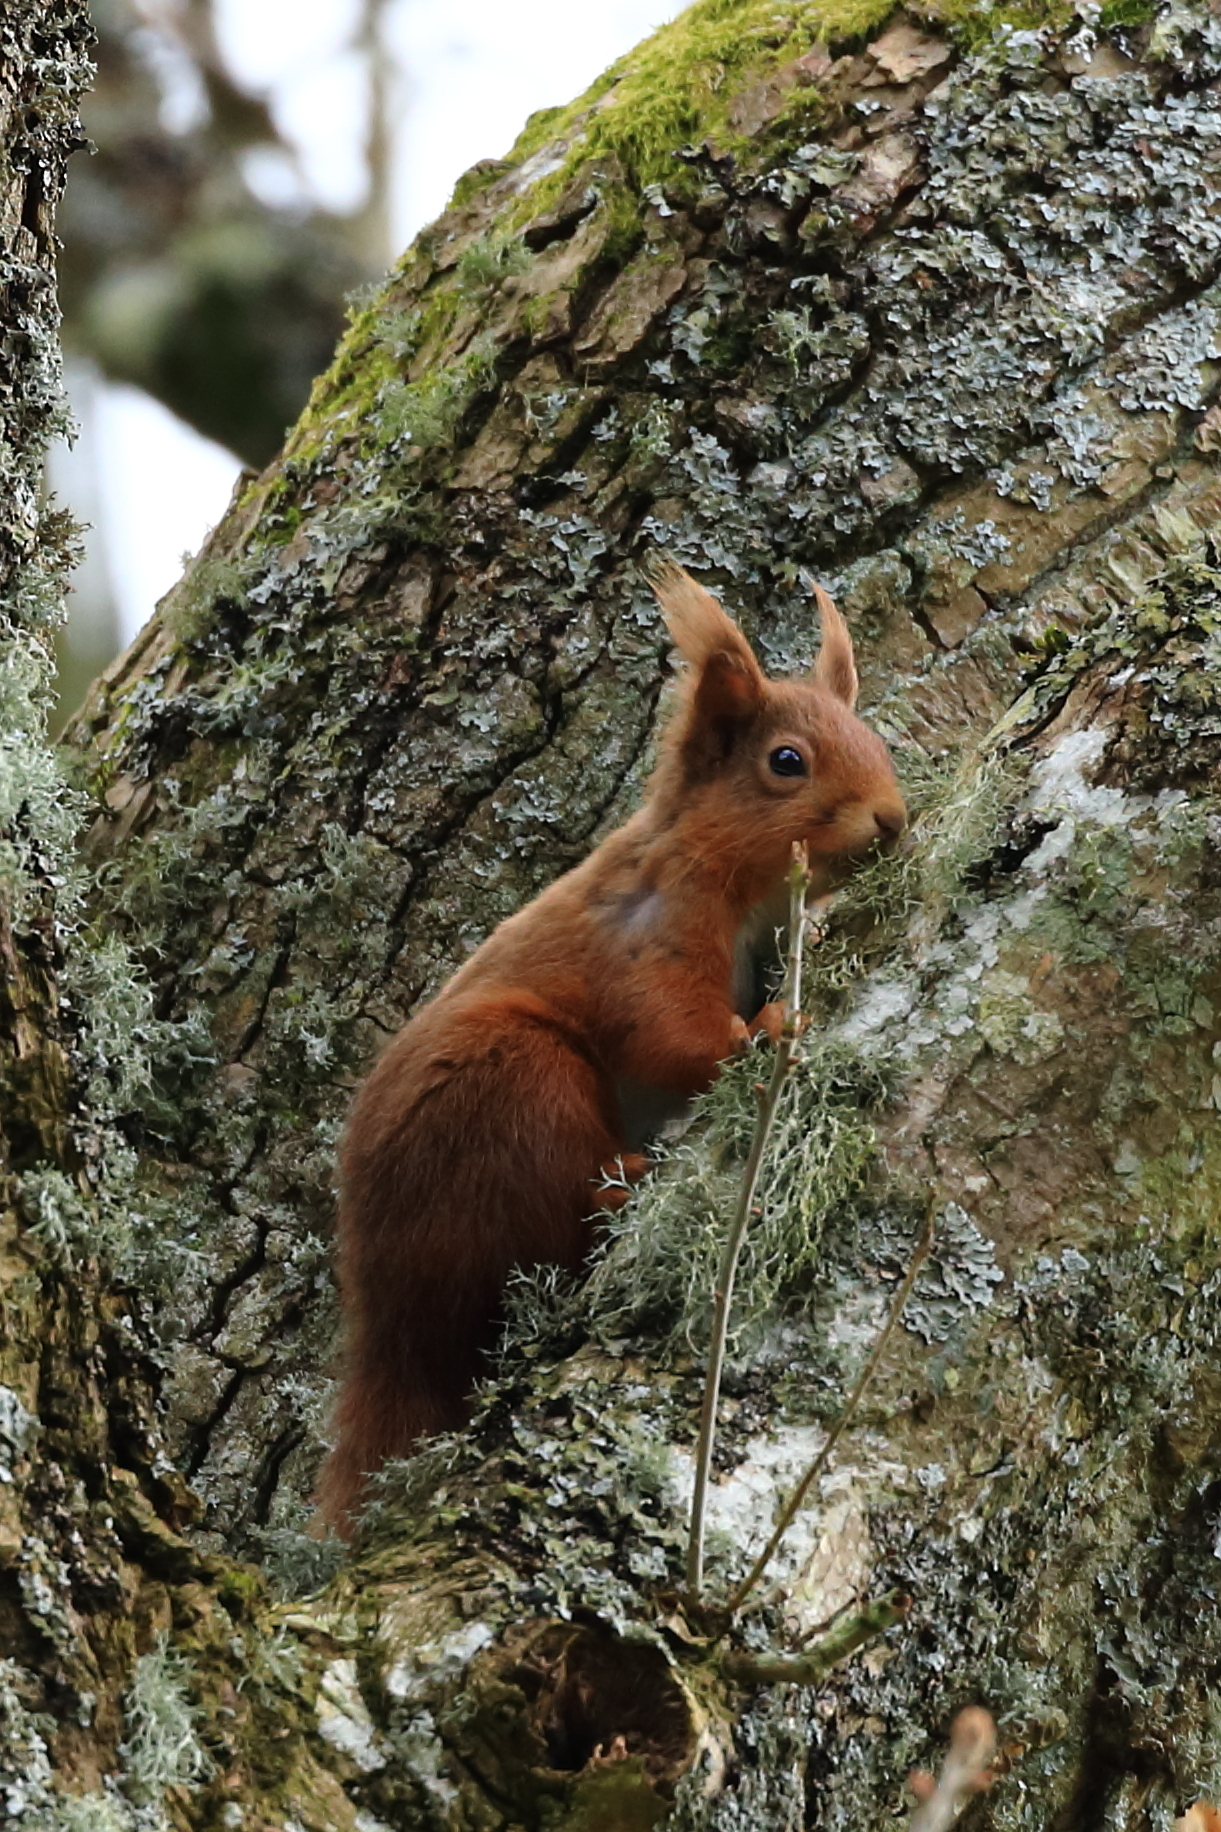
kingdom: Animalia
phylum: Chordata
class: Mammalia
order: Rodentia
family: Sciuridae
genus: Sciurus
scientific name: Sciurus vulgaris
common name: Eurasian red squirrel
